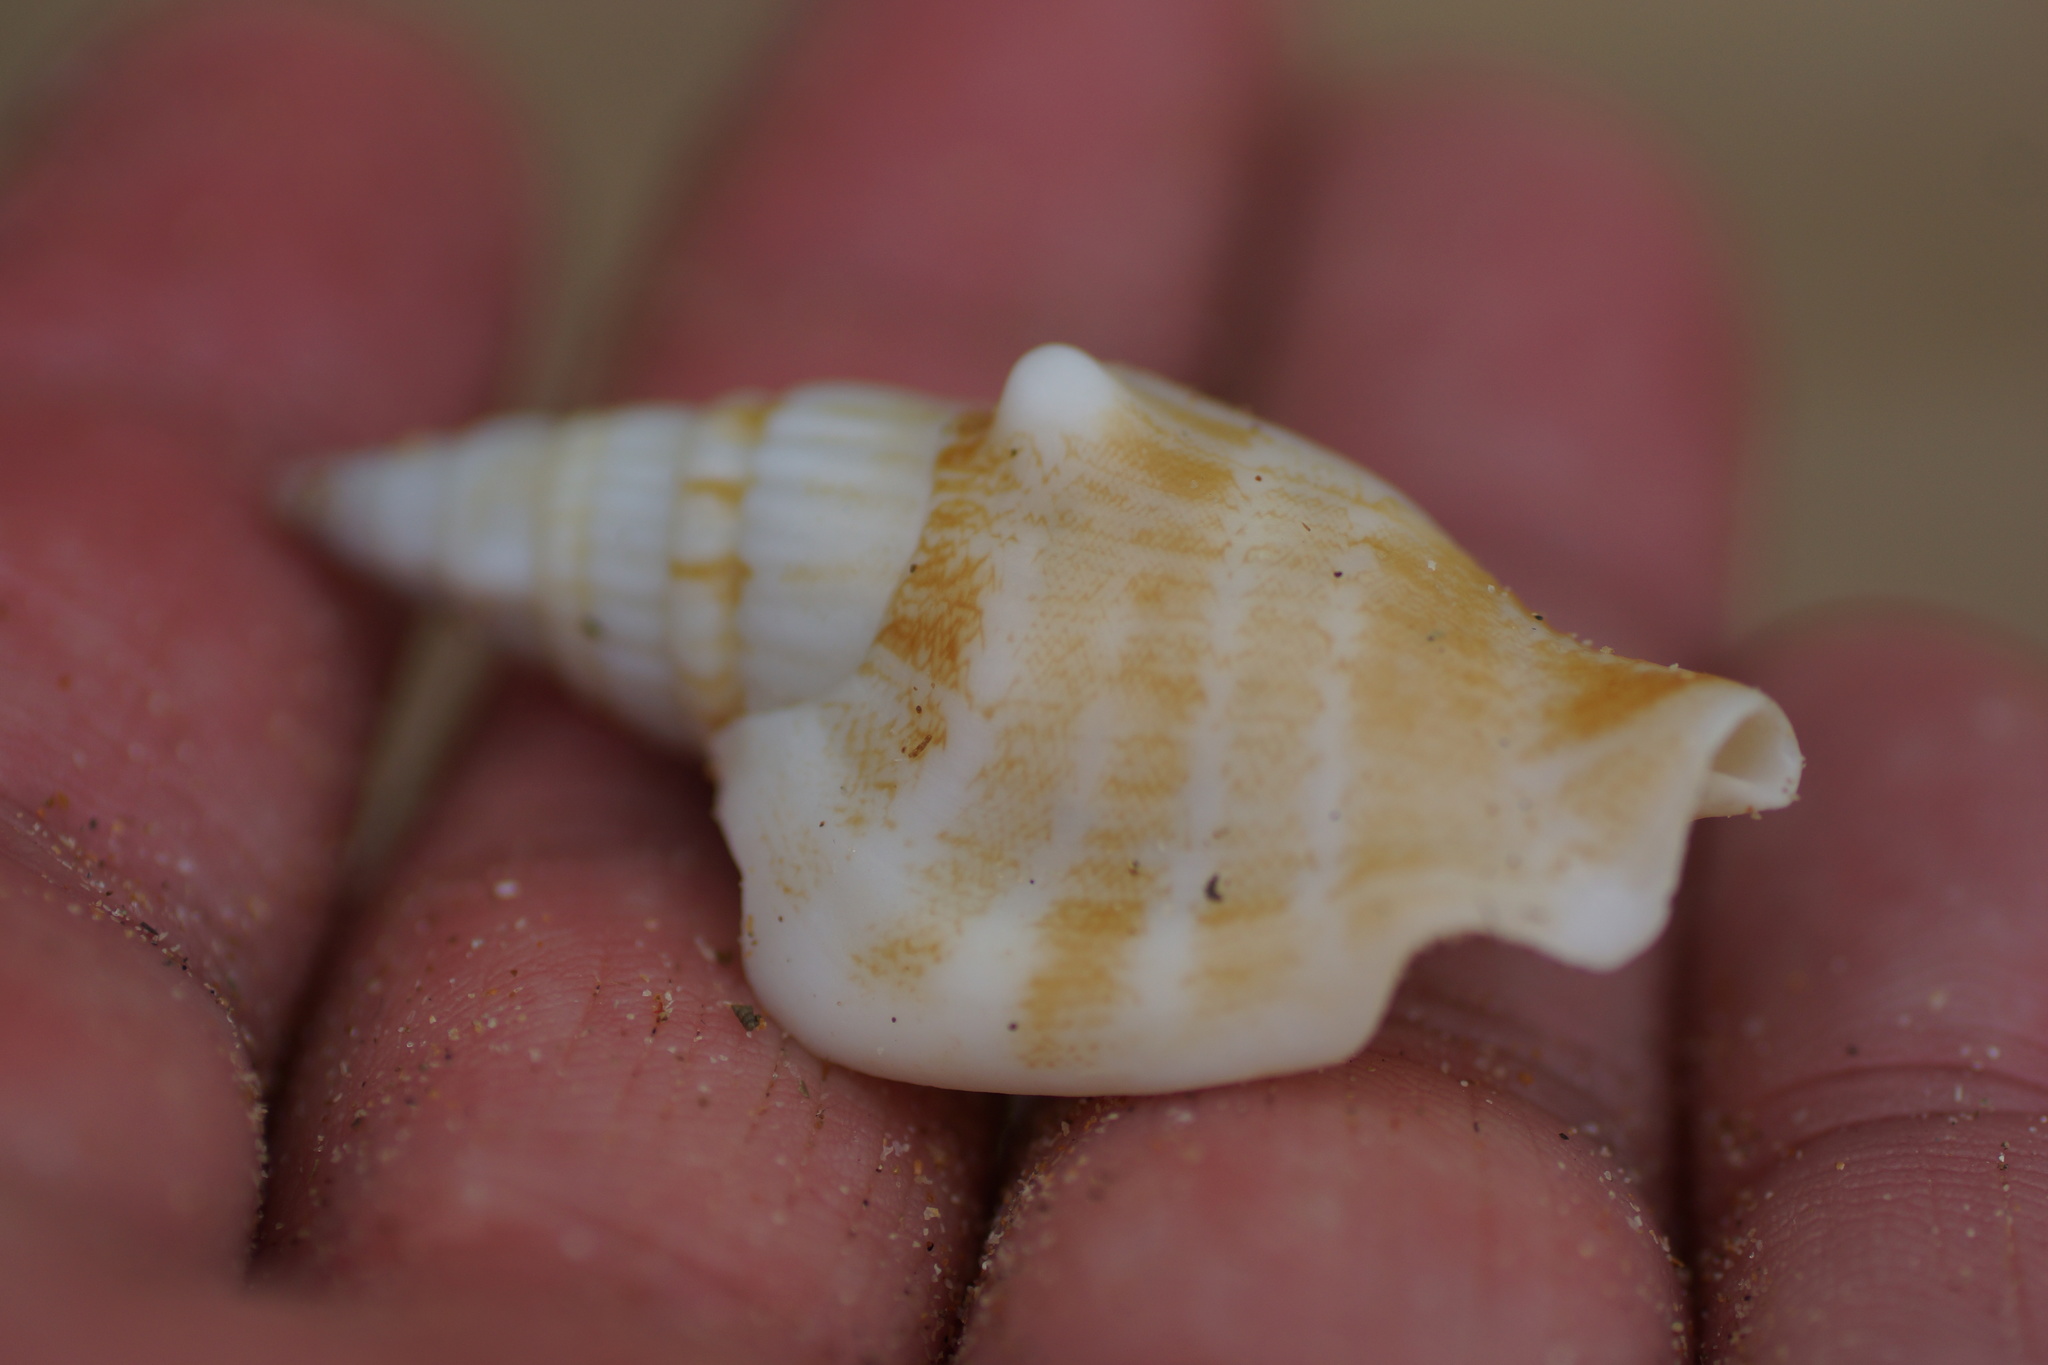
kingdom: Animalia
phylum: Mollusca
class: Gastropoda
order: Littorinimorpha
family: Strombidae
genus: Doxander
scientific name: Doxander campbellii
